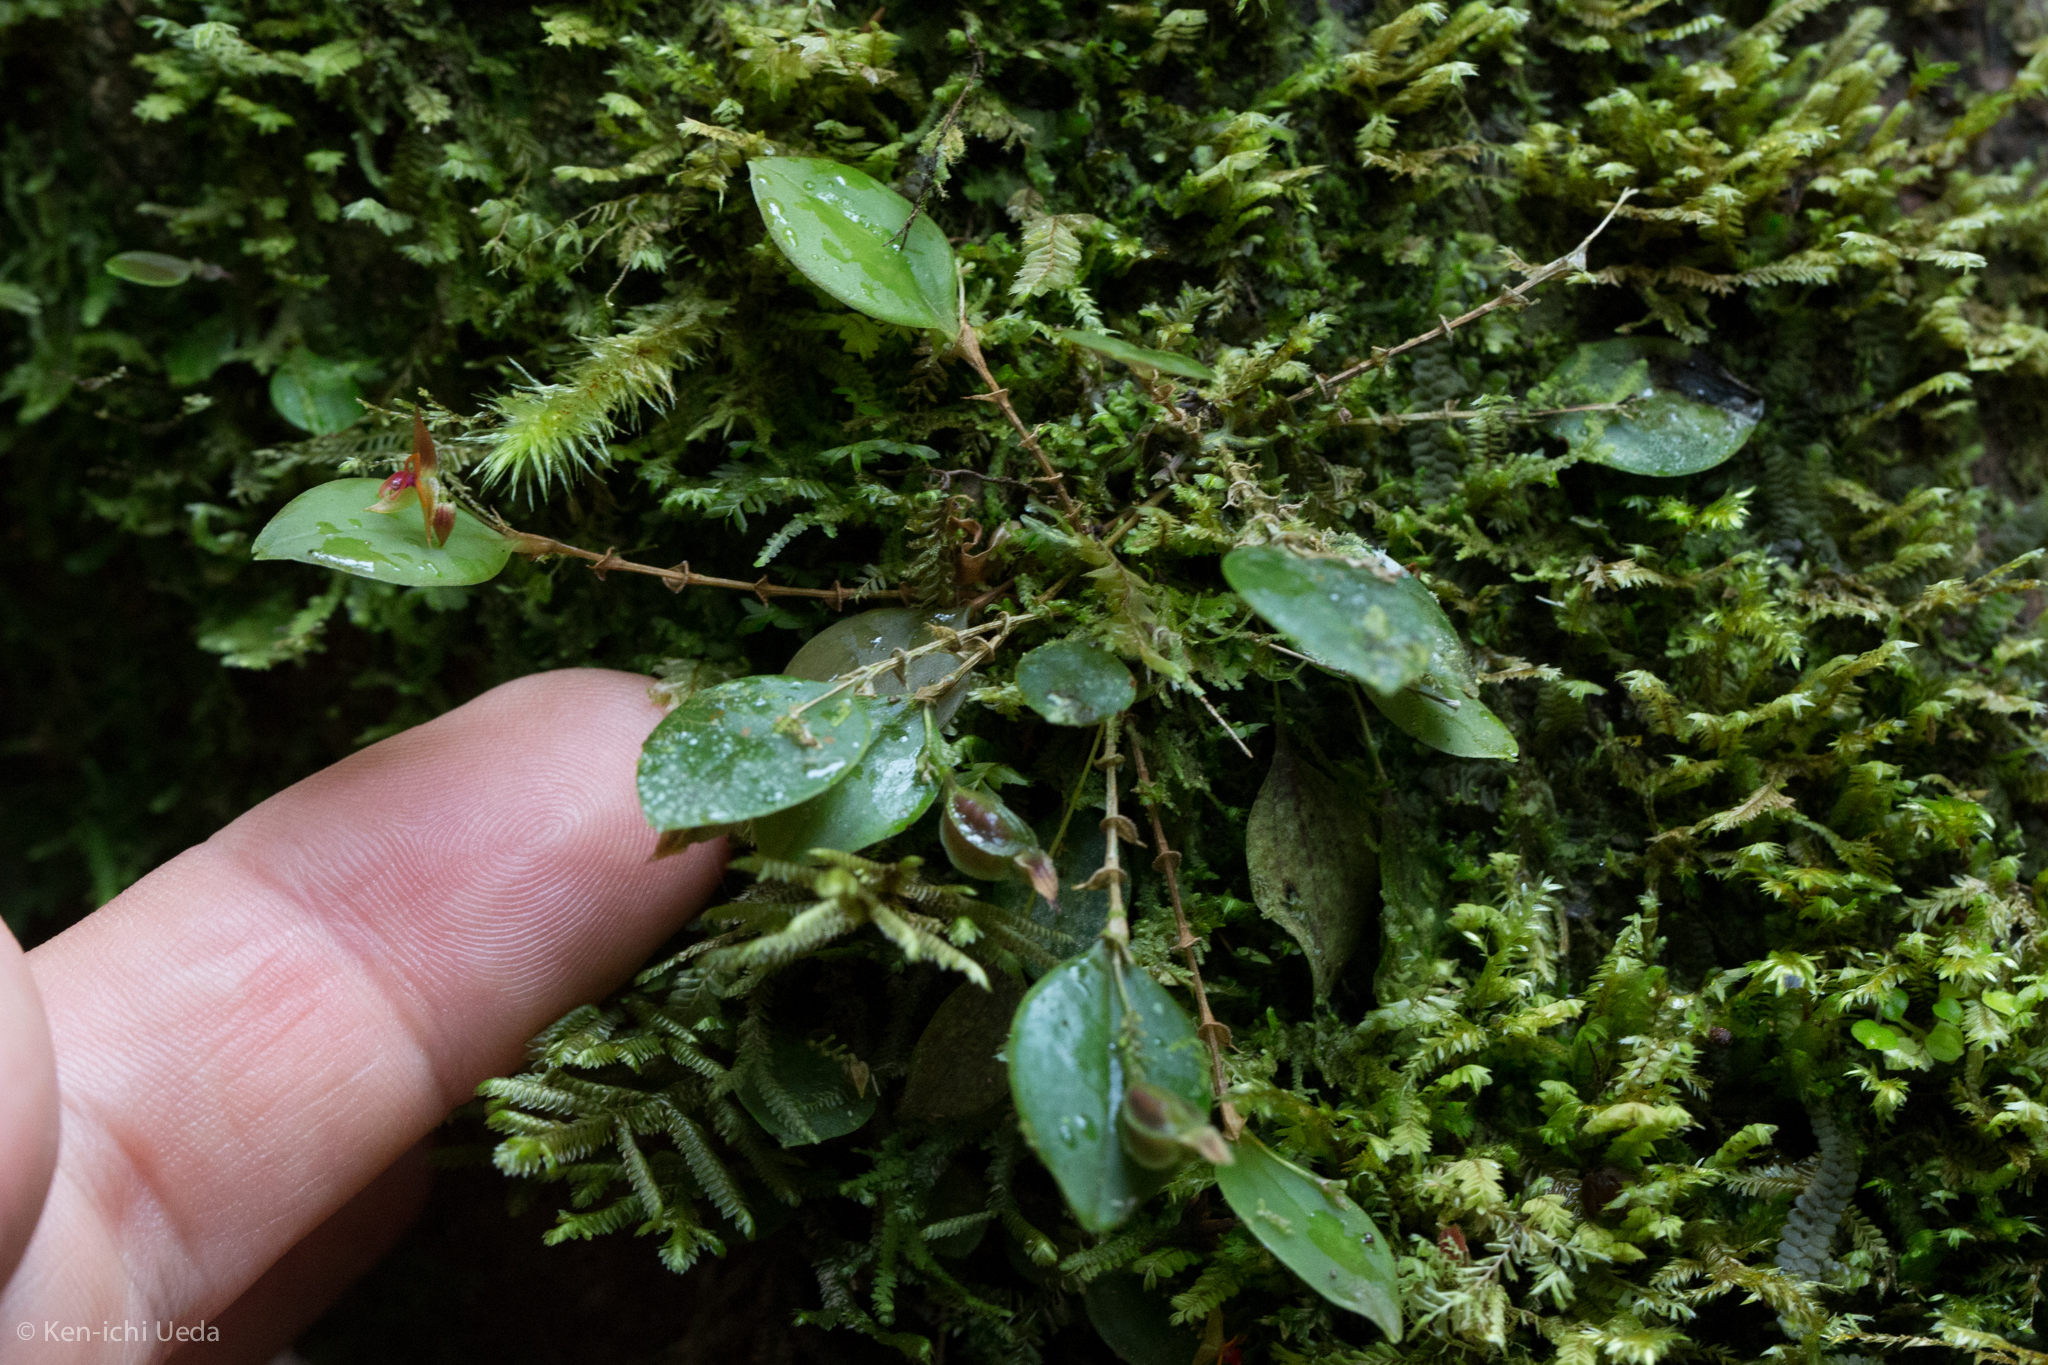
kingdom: Plantae
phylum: Tracheophyta
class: Liliopsida
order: Asparagales
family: Orchidaceae
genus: Lepanthes
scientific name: Lepanthes monteverdensis
